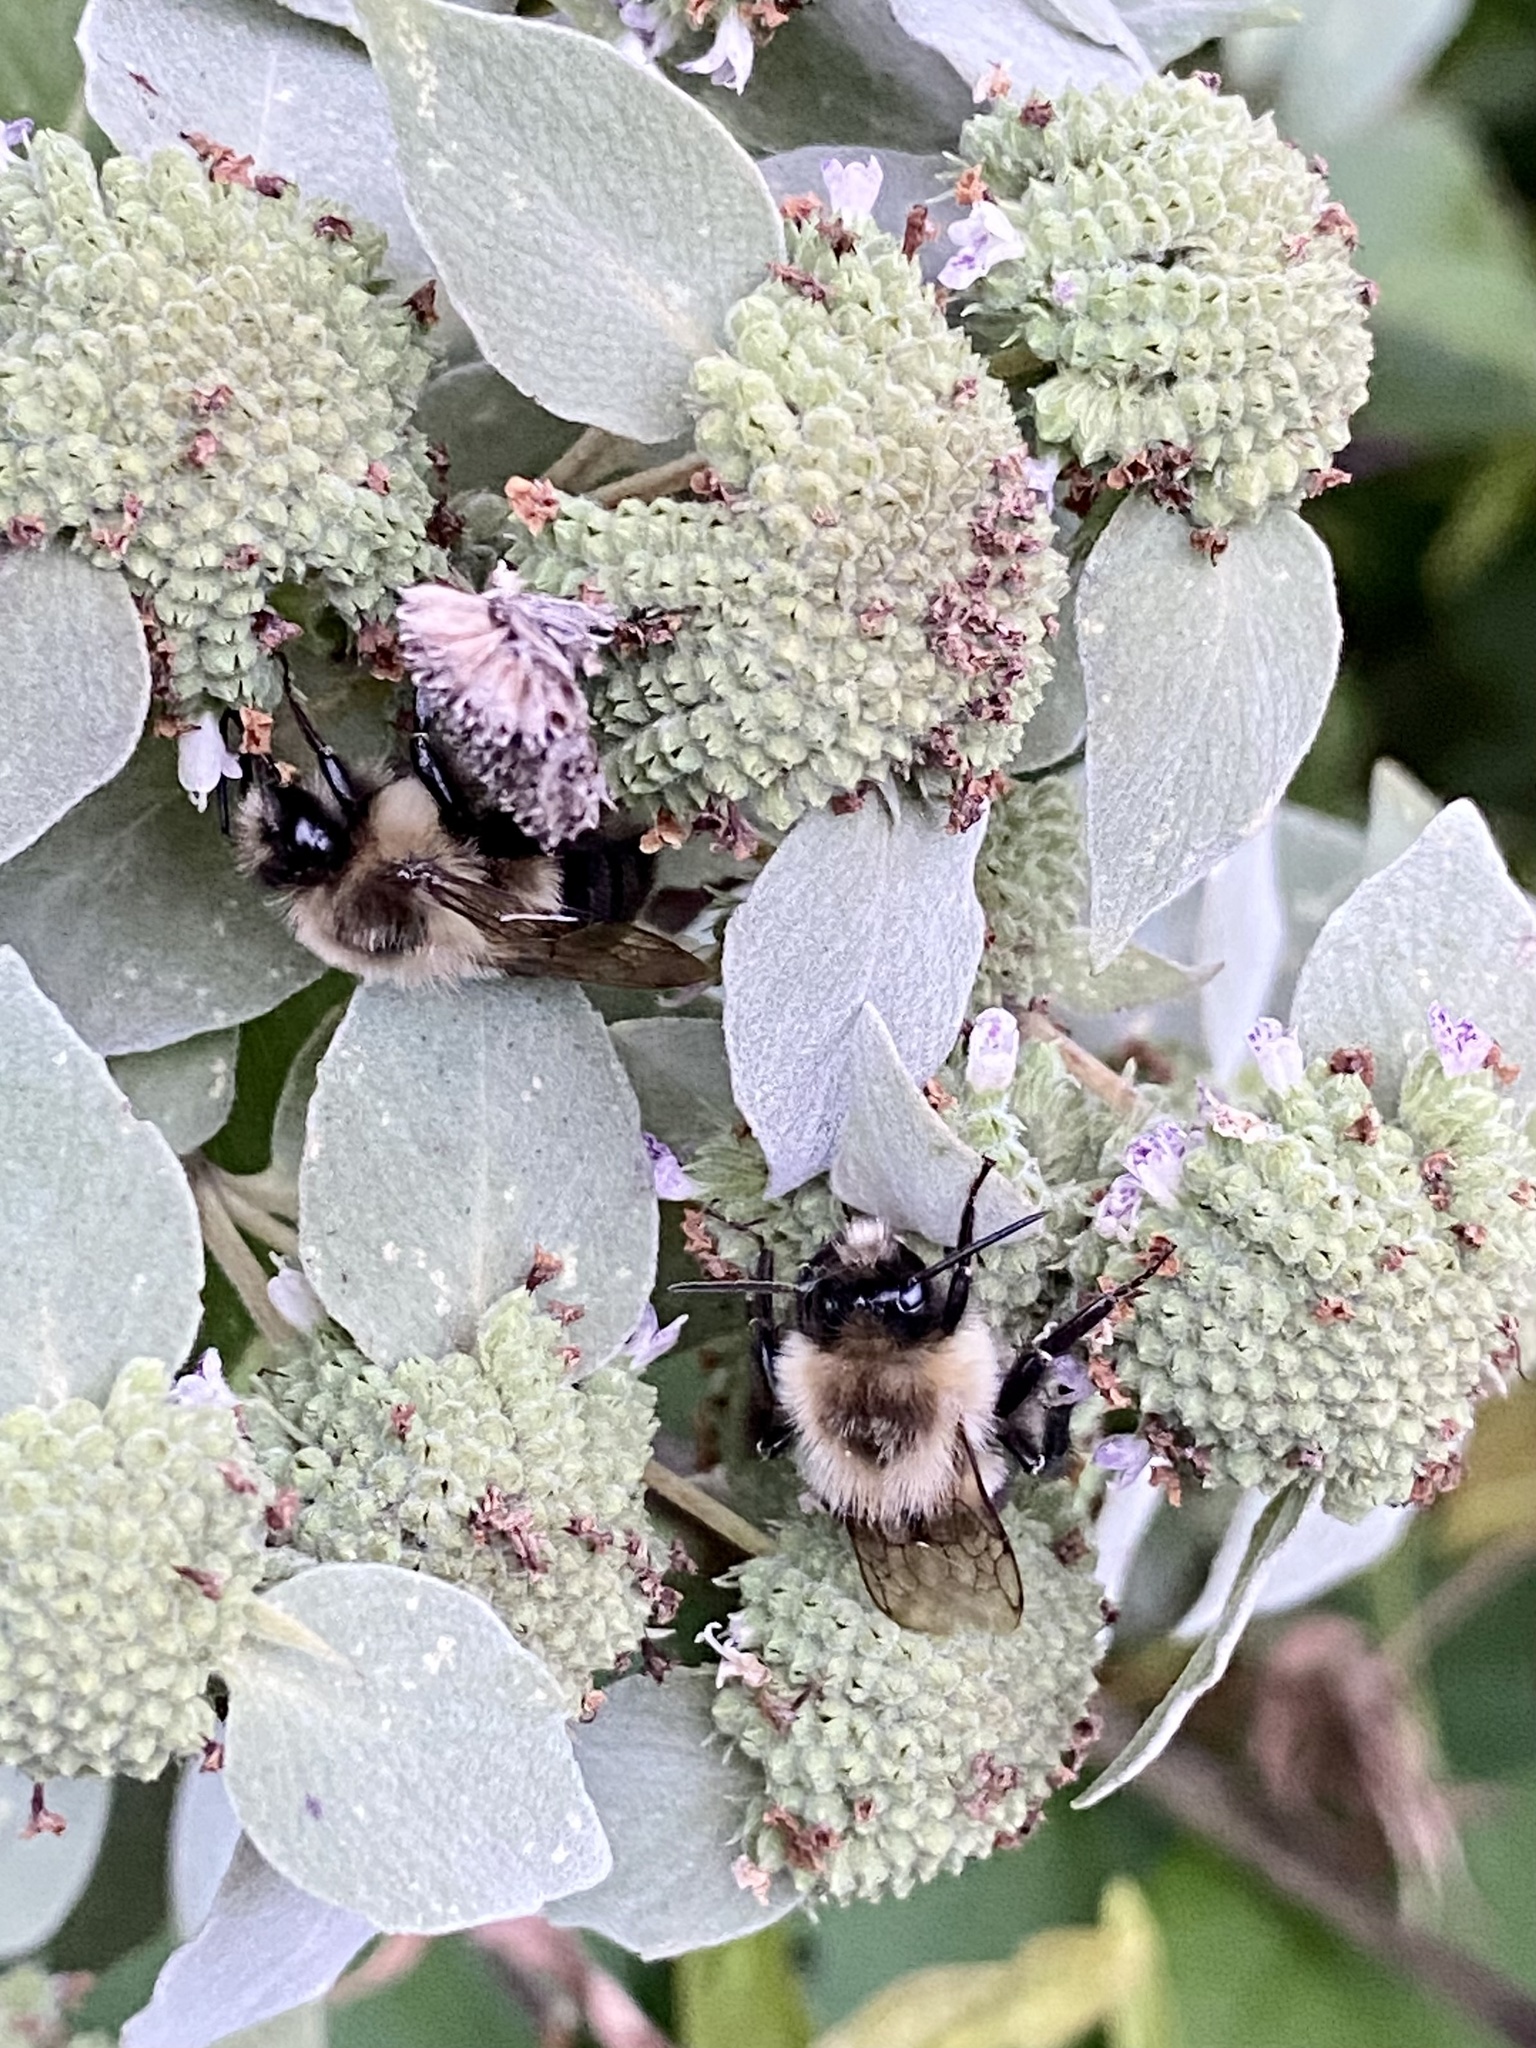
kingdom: Animalia
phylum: Arthropoda
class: Insecta
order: Hymenoptera
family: Apidae
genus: Bombus
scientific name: Bombus impatiens
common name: Common eastern bumble bee
